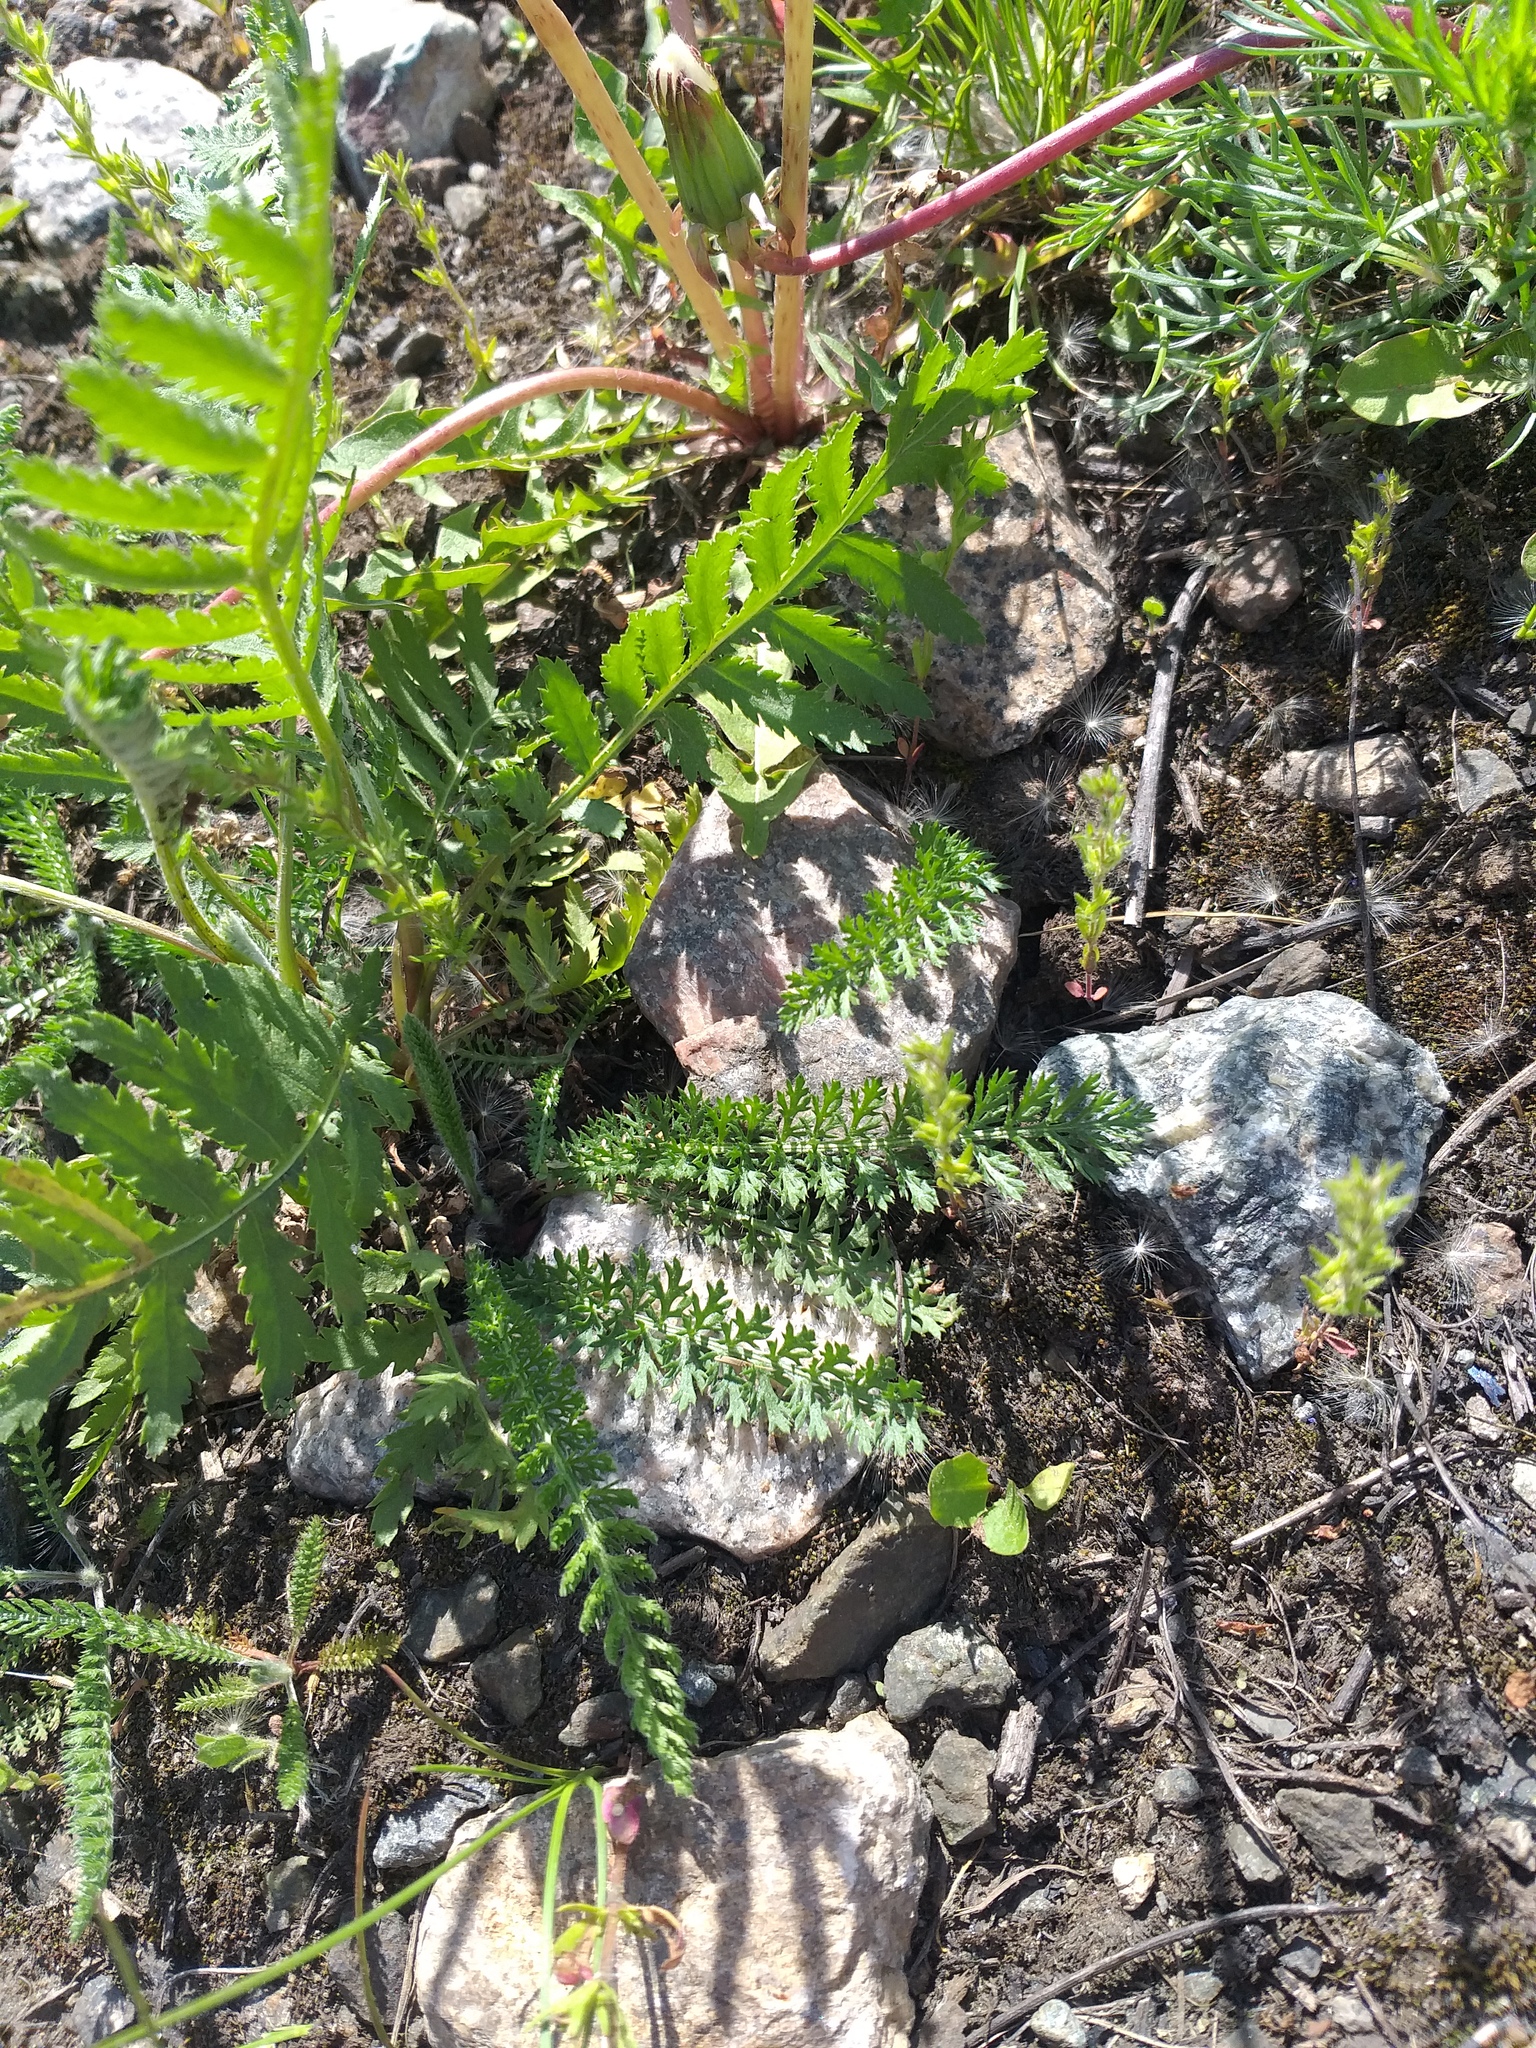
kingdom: Plantae
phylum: Tracheophyta
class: Magnoliopsida
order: Asterales
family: Asteraceae
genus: Achillea
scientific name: Achillea millefolium
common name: Yarrow
